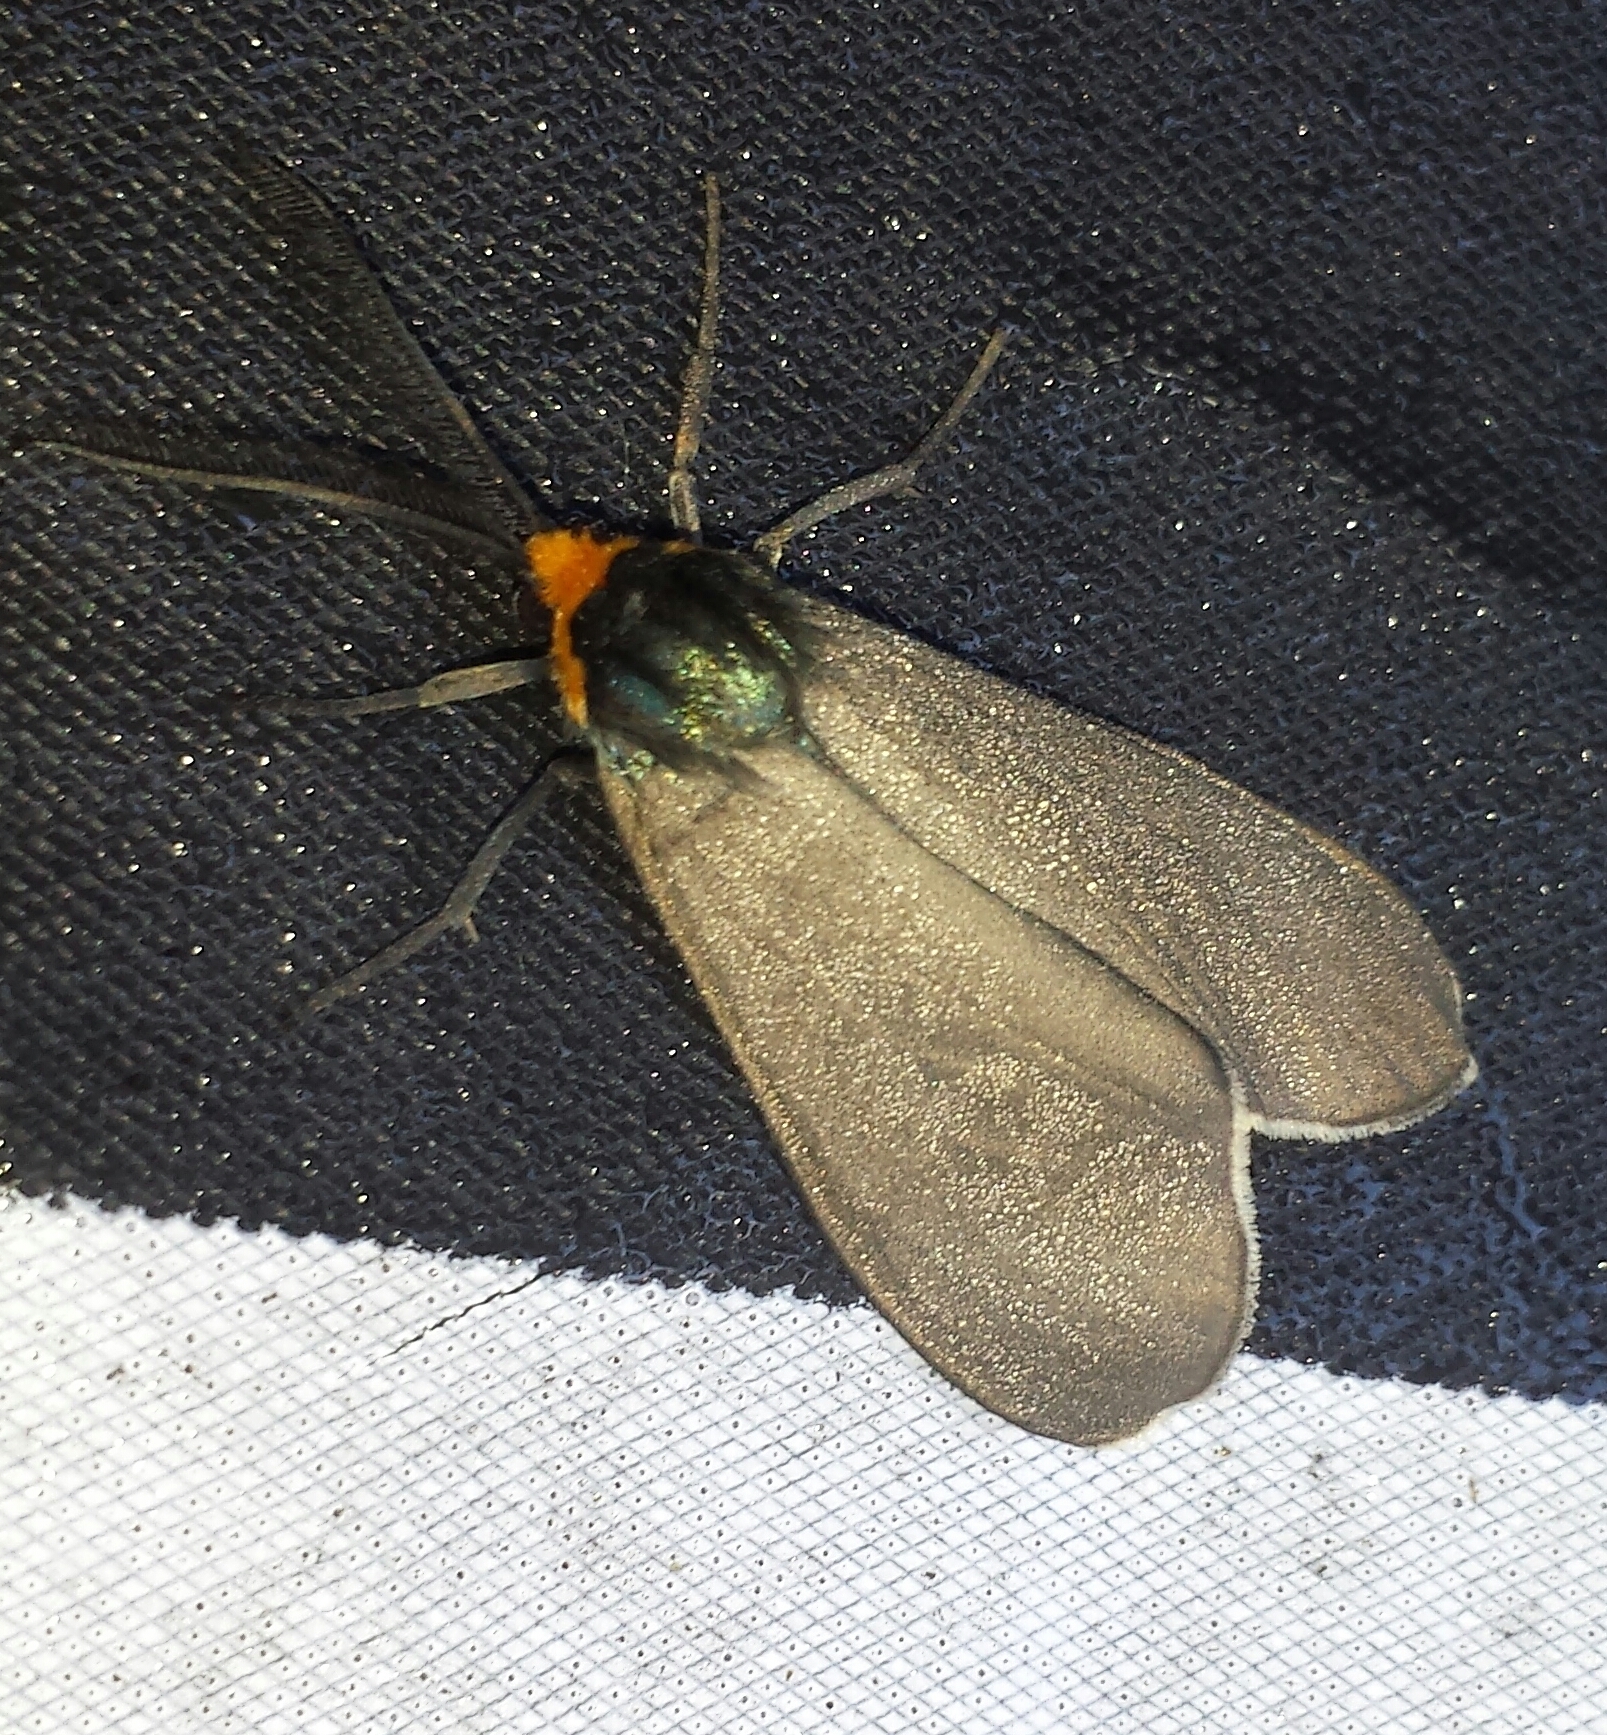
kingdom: Animalia
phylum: Arthropoda
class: Insecta
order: Lepidoptera
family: Erebidae
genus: Ctenucha
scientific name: Ctenucha virginica
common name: Virginia ctenucha moth
